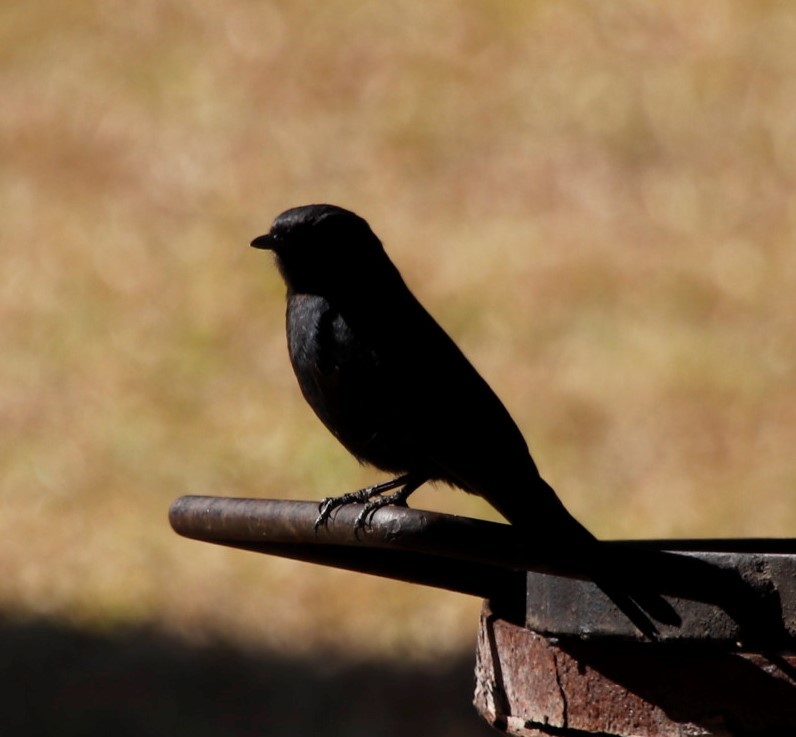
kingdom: Animalia
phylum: Chordata
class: Aves
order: Passeriformes
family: Muscicapidae
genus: Melaenornis
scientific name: Melaenornis pammelaina
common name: Southern black flycatcher
